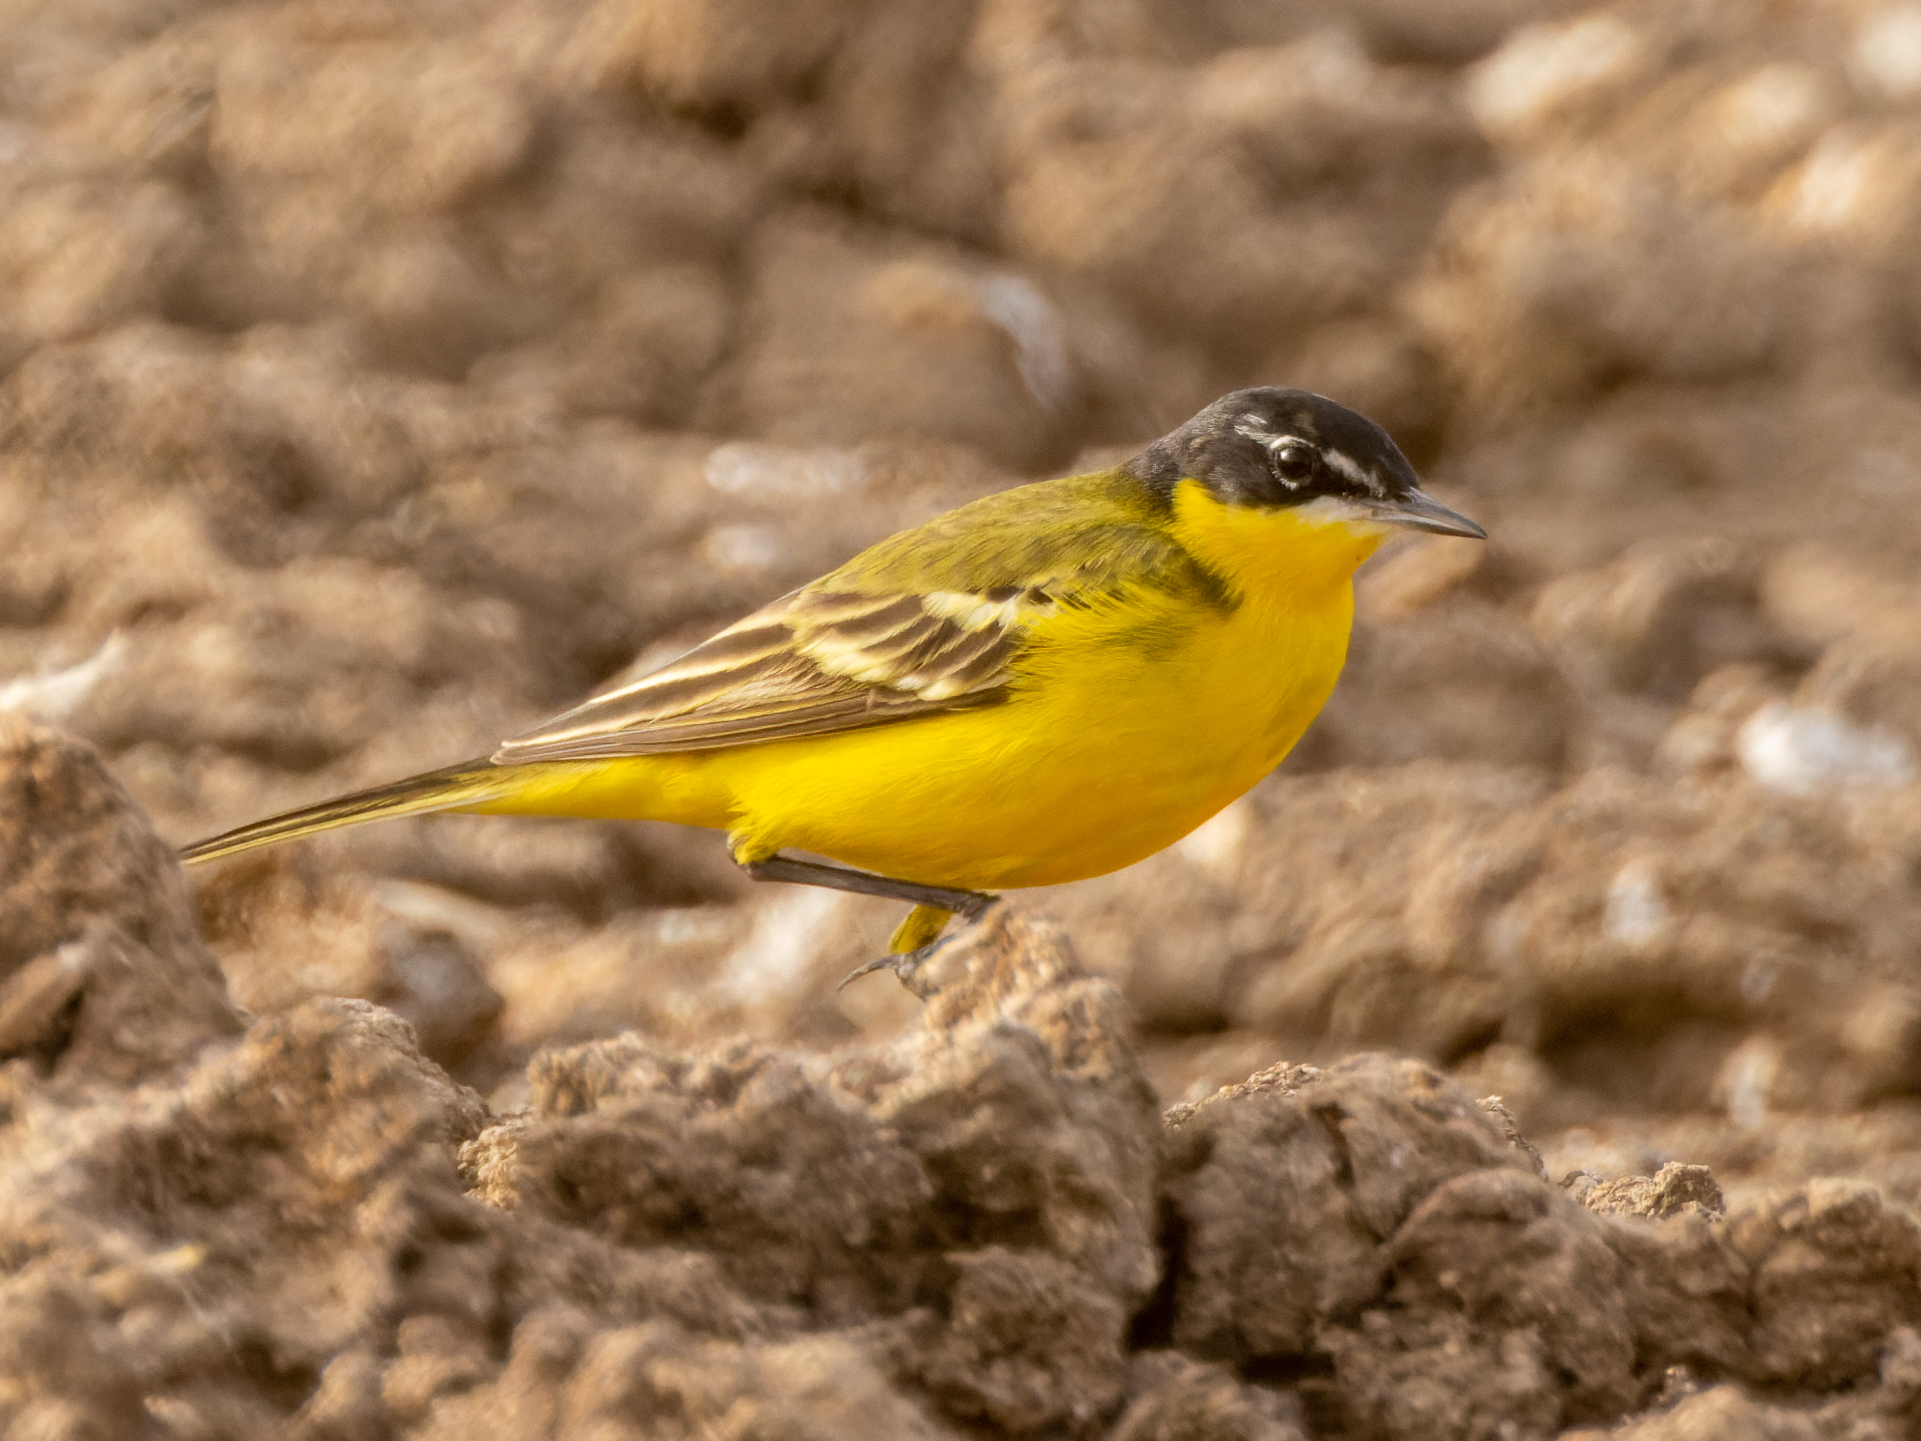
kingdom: Animalia
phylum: Chordata
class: Aves
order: Passeriformes
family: Motacillidae
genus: Motacilla
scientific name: Motacilla flava
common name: Western yellow wagtail
